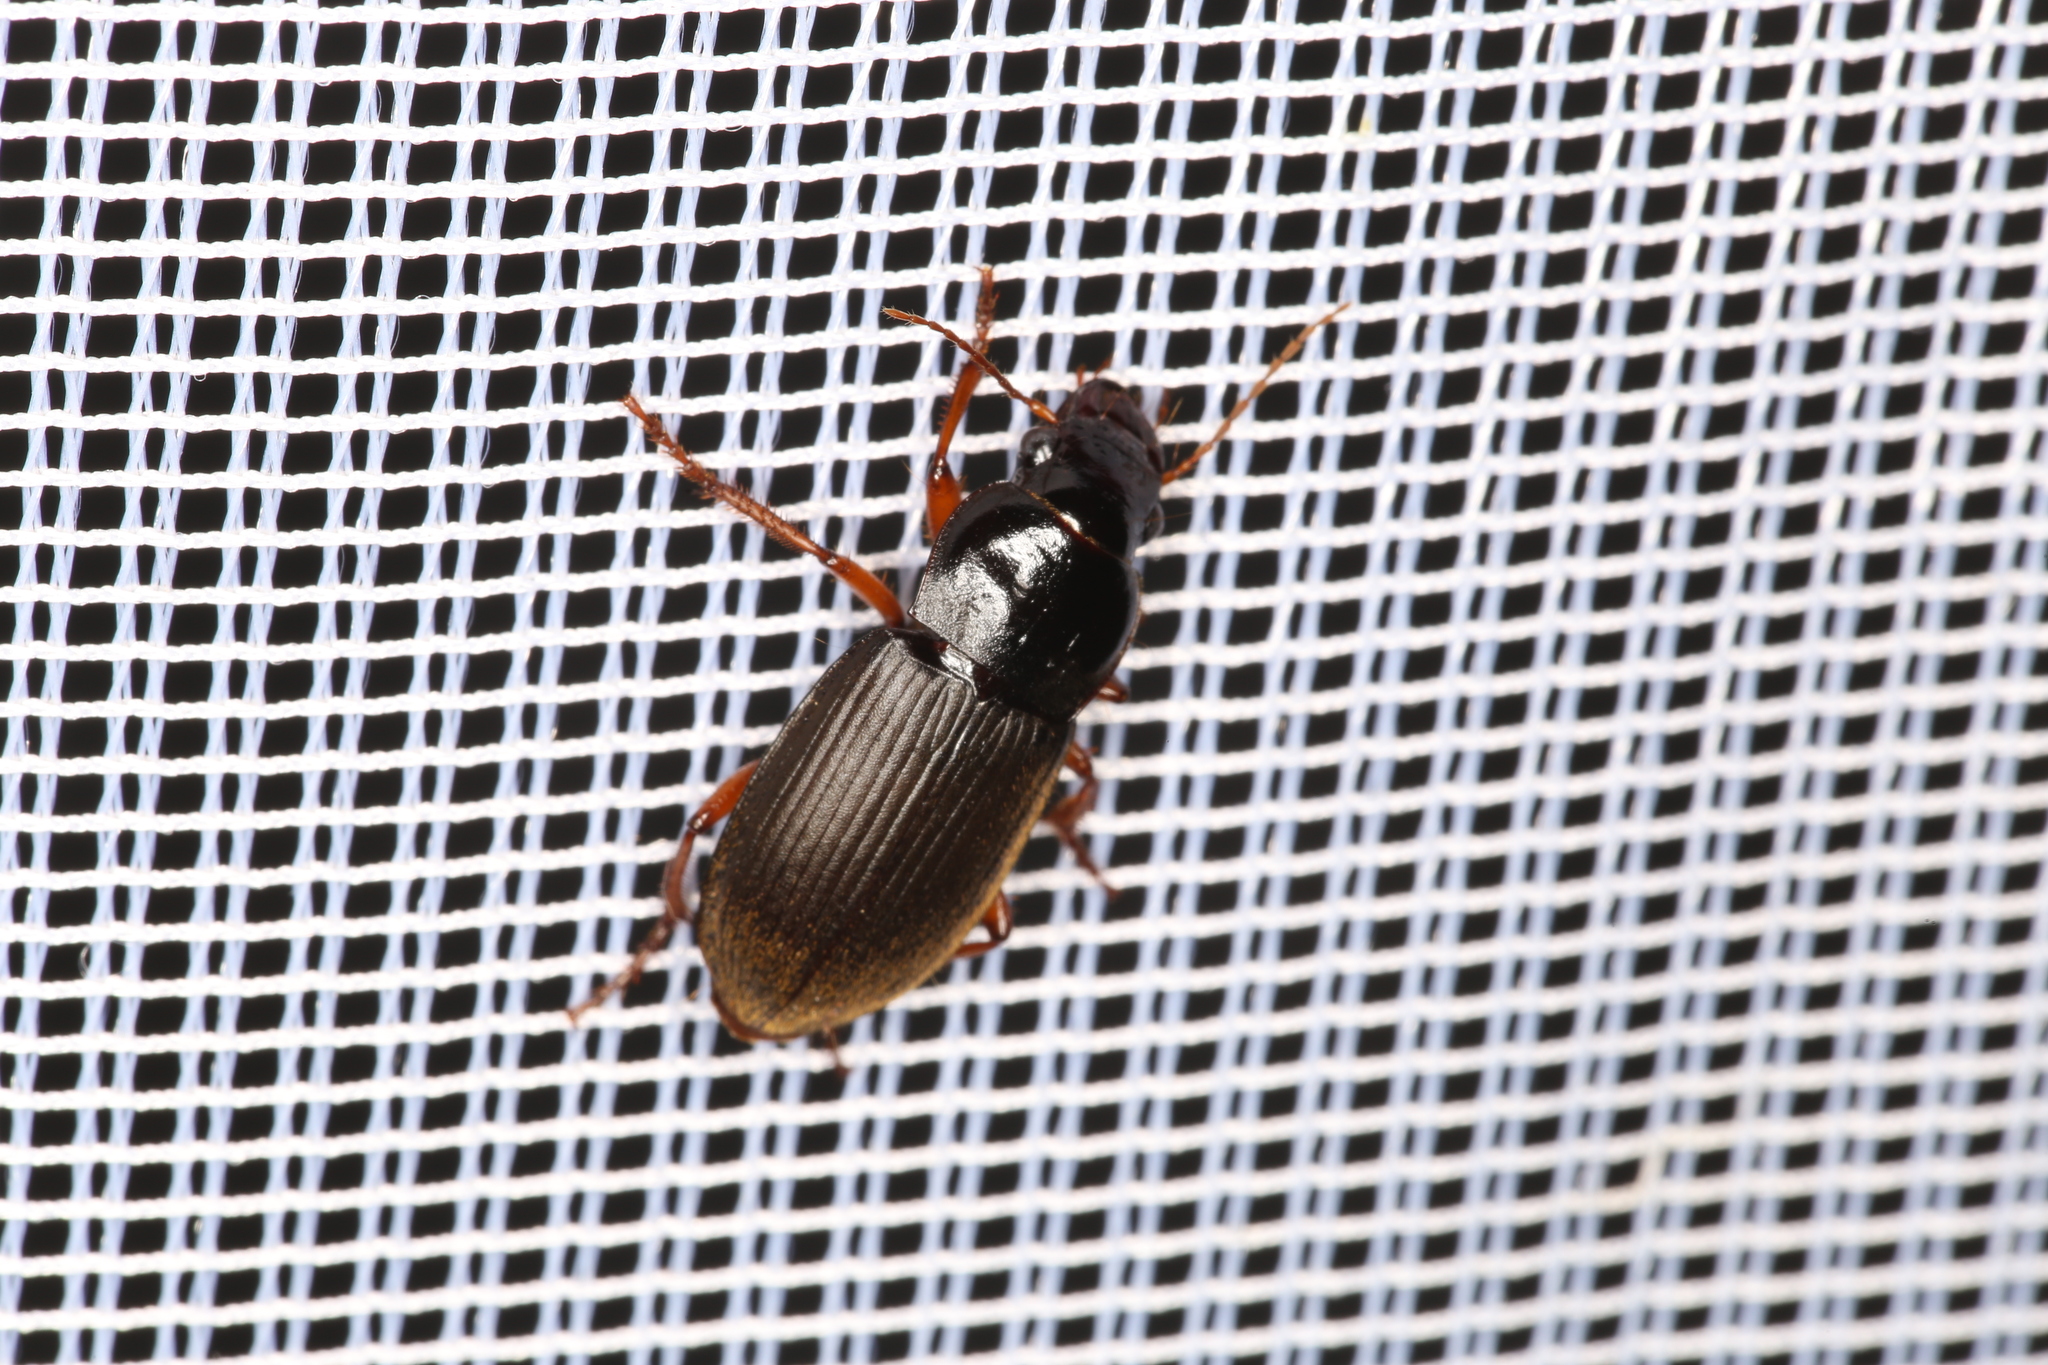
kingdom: Animalia
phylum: Arthropoda
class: Insecta
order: Coleoptera
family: Carabidae
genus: Harpalus
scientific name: Harpalus rufipes
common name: Strawberry harp ground beetle
